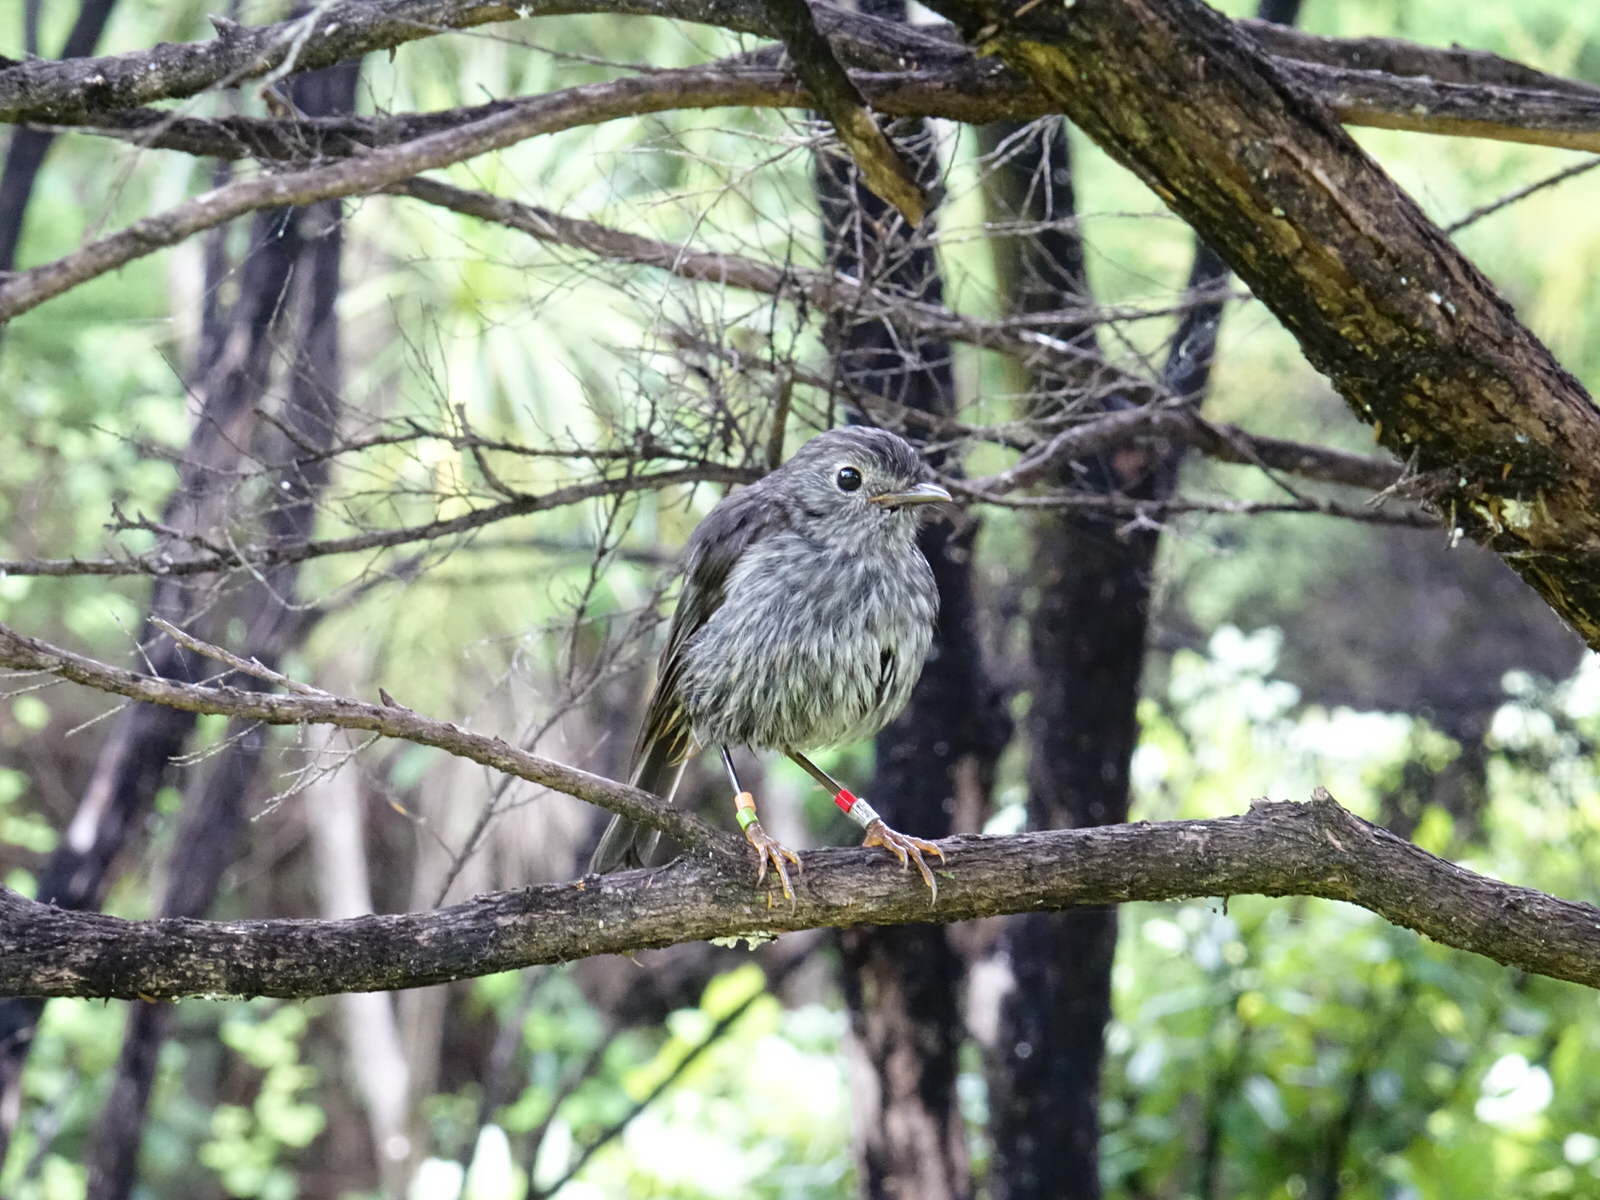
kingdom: Animalia
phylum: Chordata
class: Aves
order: Passeriformes
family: Petroicidae
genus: Petroica
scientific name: Petroica australis
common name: New zealand robin
